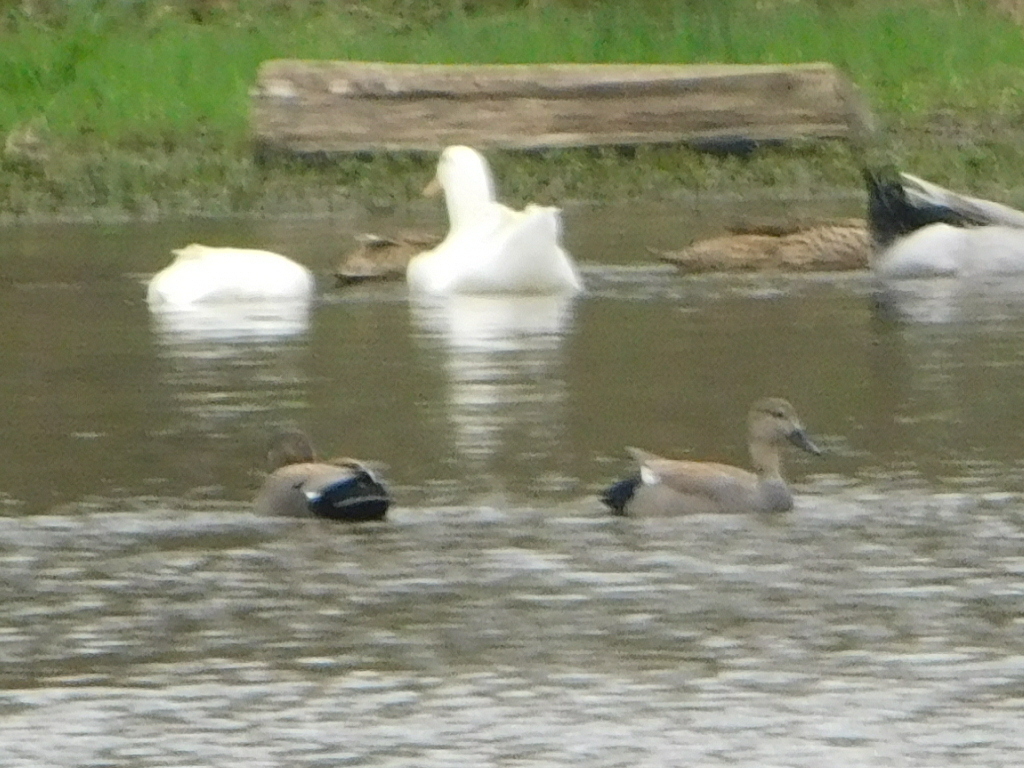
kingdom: Animalia
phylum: Chordata
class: Aves
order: Anseriformes
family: Anatidae
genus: Mareca
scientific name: Mareca strepera
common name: Gadwall
